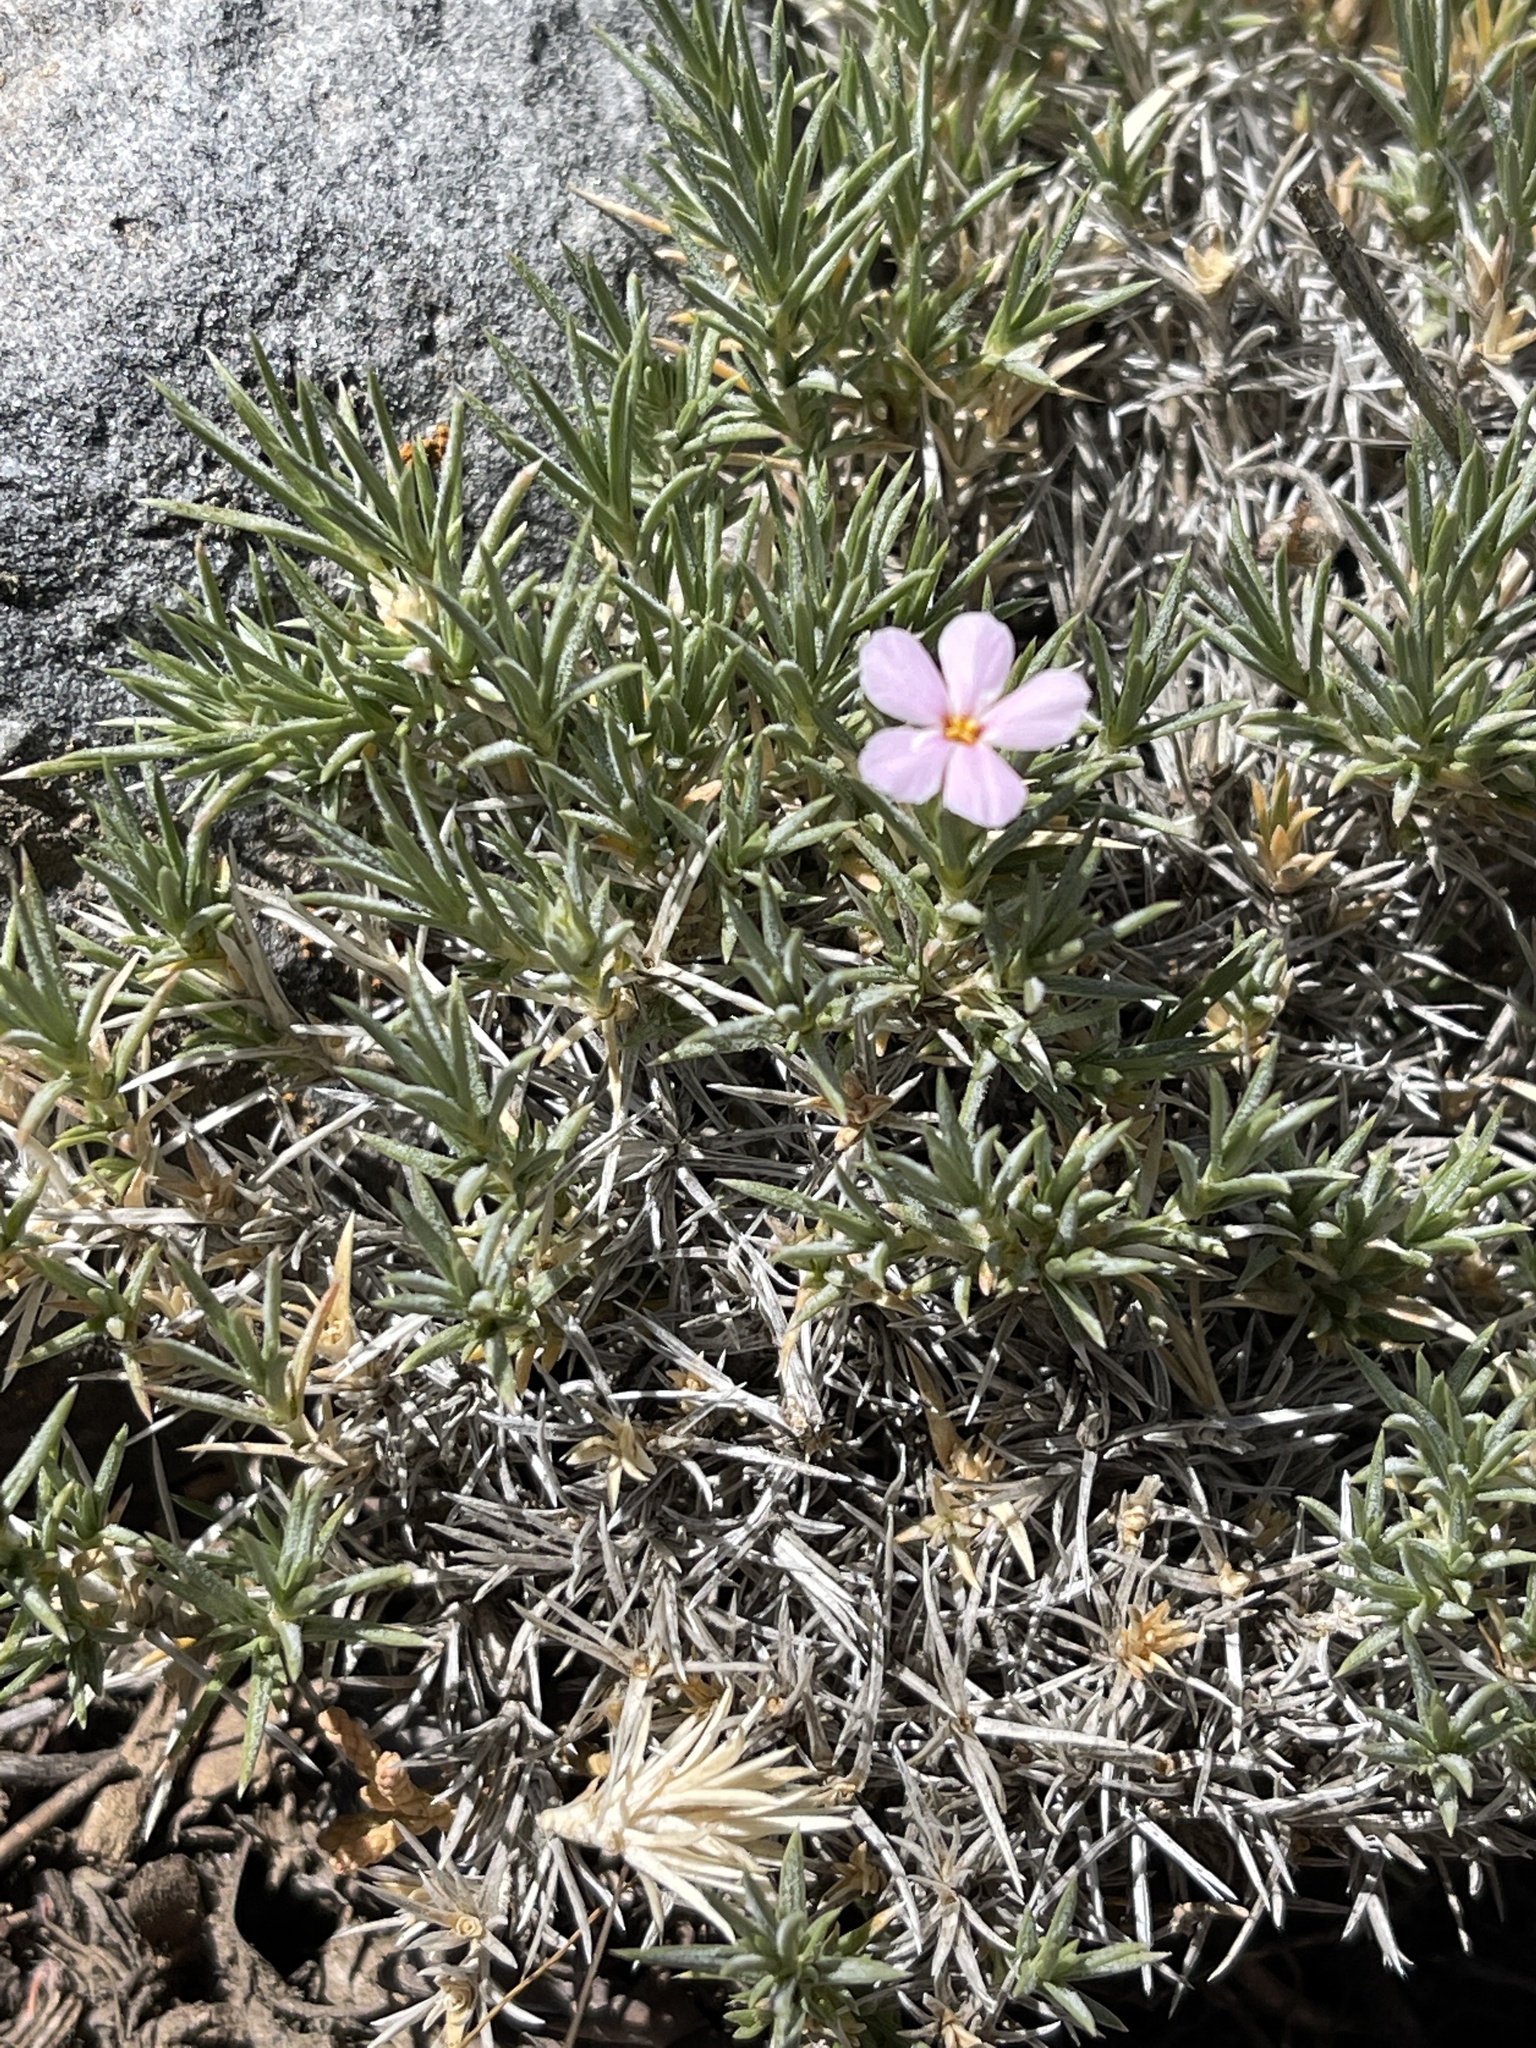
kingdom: Plantae
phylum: Tracheophyta
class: Magnoliopsida
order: Ericales
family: Polemoniaceae
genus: Phlox
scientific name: Phlox austromontana
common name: Desert phlox
